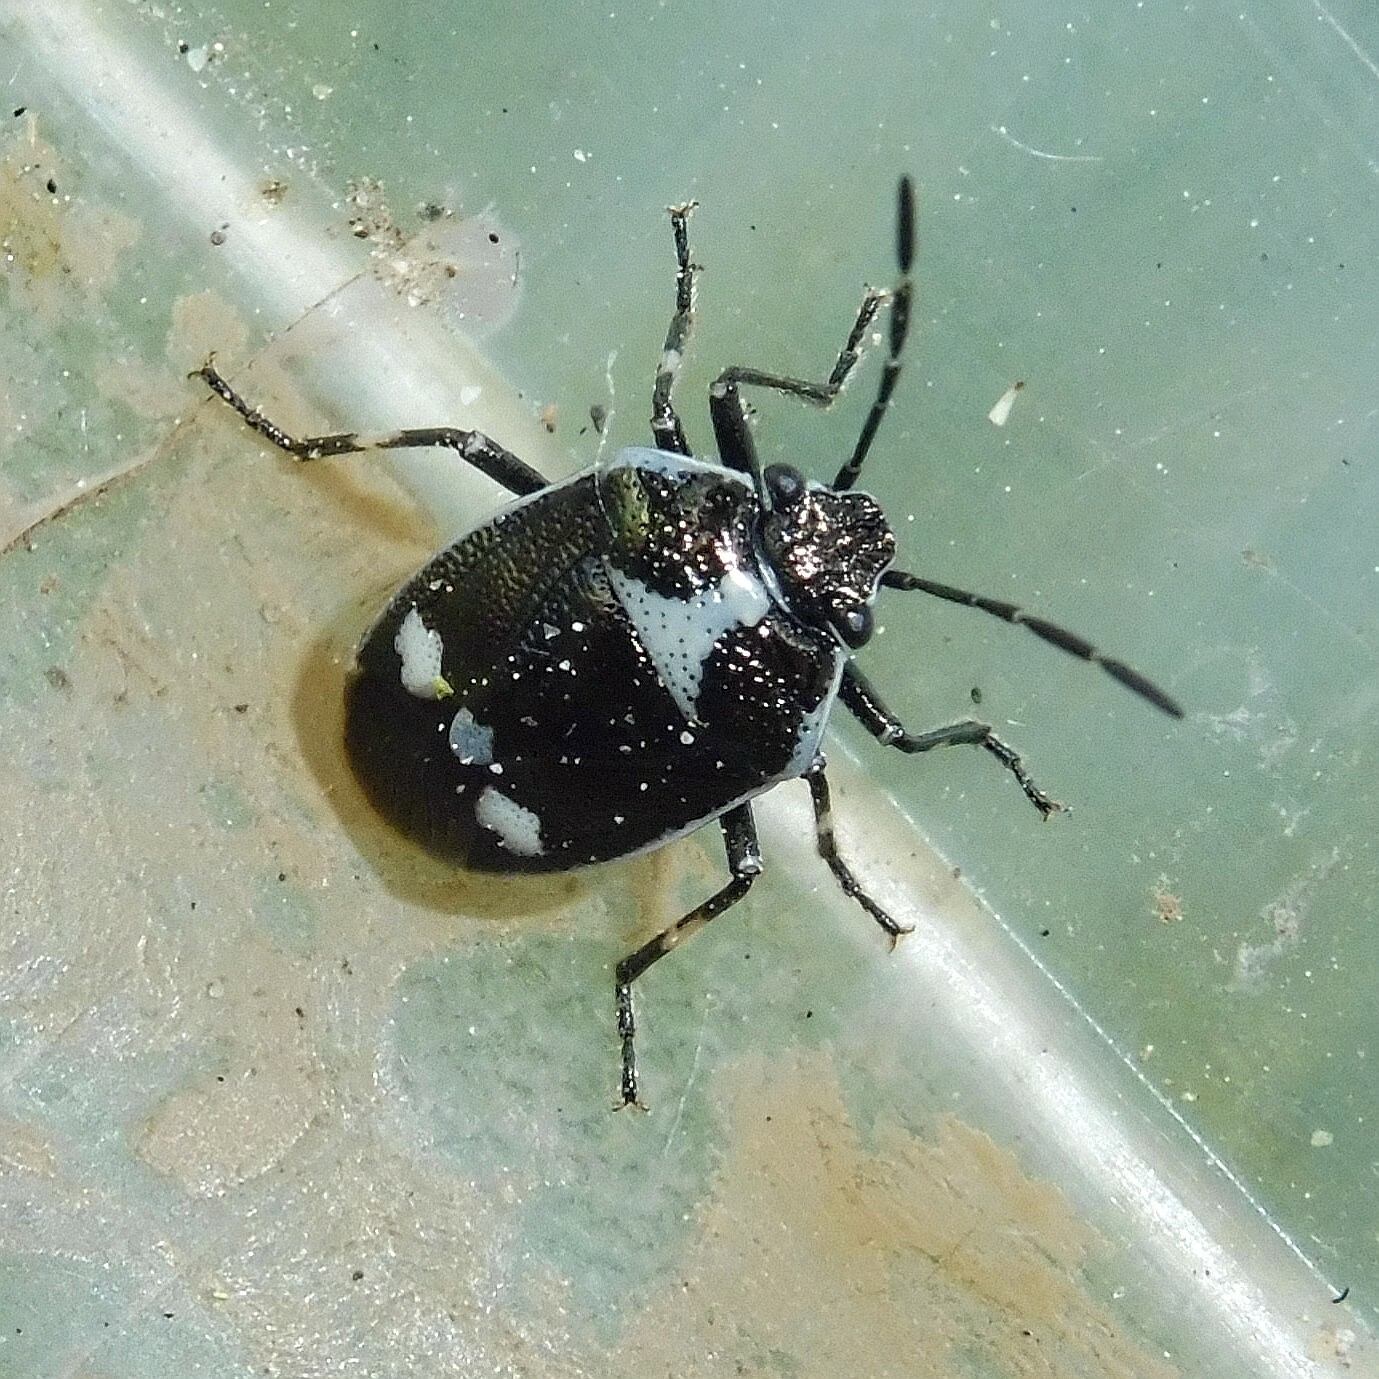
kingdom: Animalia
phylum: Arthropoda
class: Insecta
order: Hemiptera
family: Pentatomidae
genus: Eurydema
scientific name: Eurydema oleracea
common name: Cabbage bug
